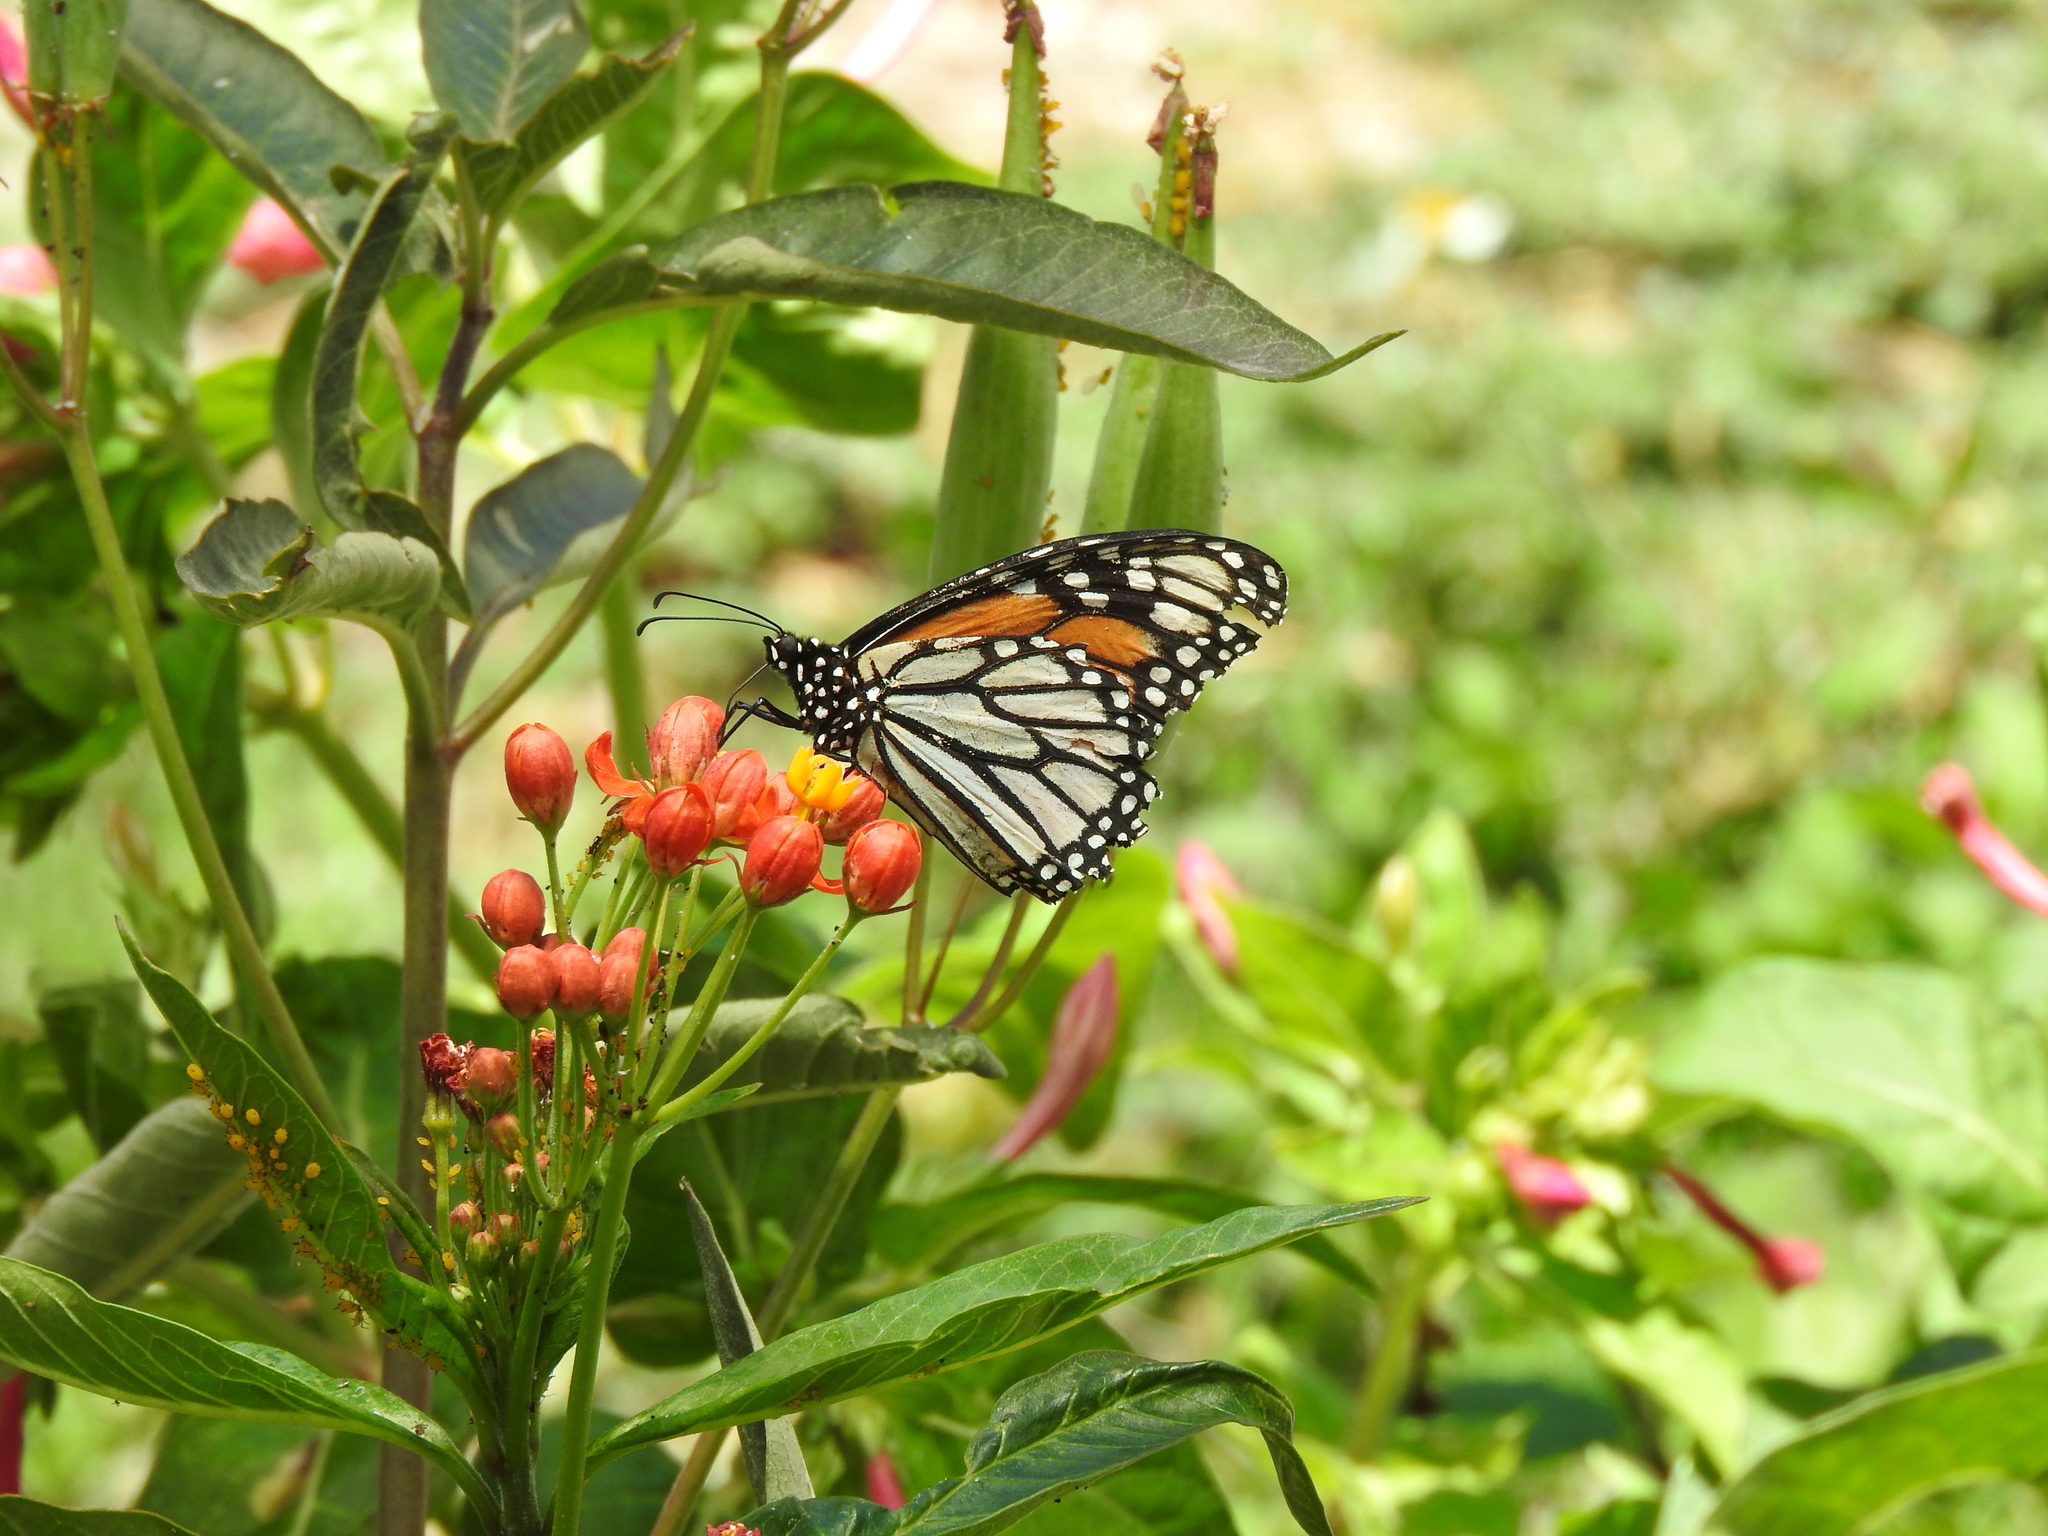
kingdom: Animalia
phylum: Arthropoda
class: Insecta
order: Lepidoptera
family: Nymphalidae
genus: Danaus
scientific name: Danaus plexippus
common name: Monarch
